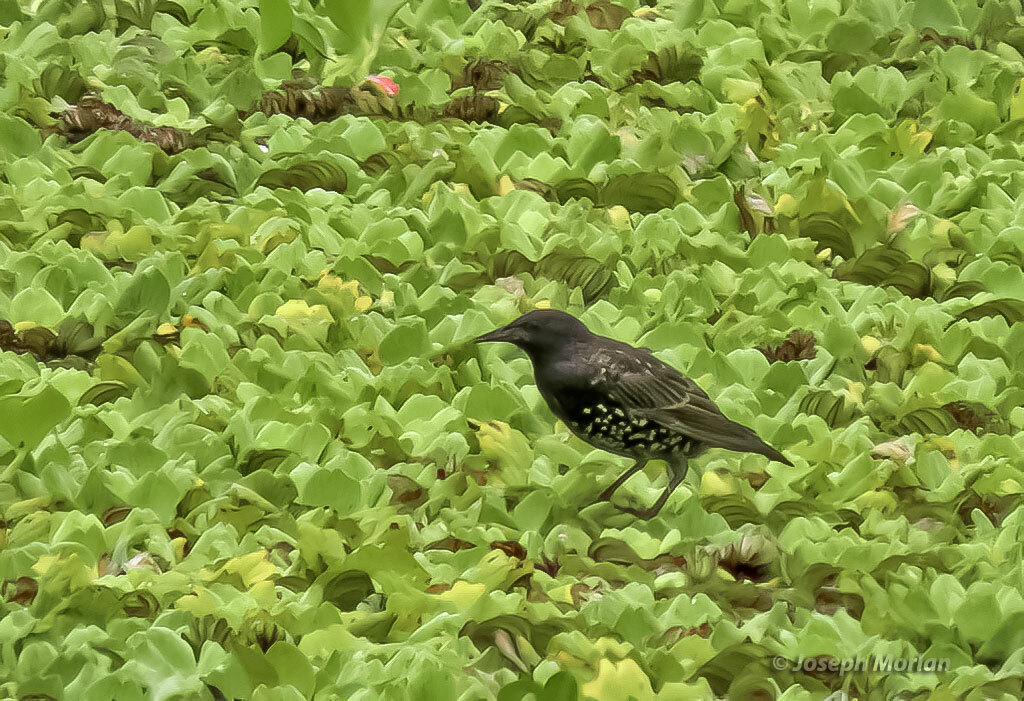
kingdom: Animalia
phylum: Chordata
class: Aves
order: Passeriformes
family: Sturnidae
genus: Sturnus
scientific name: Sturnus vulgaris
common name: Common starling
